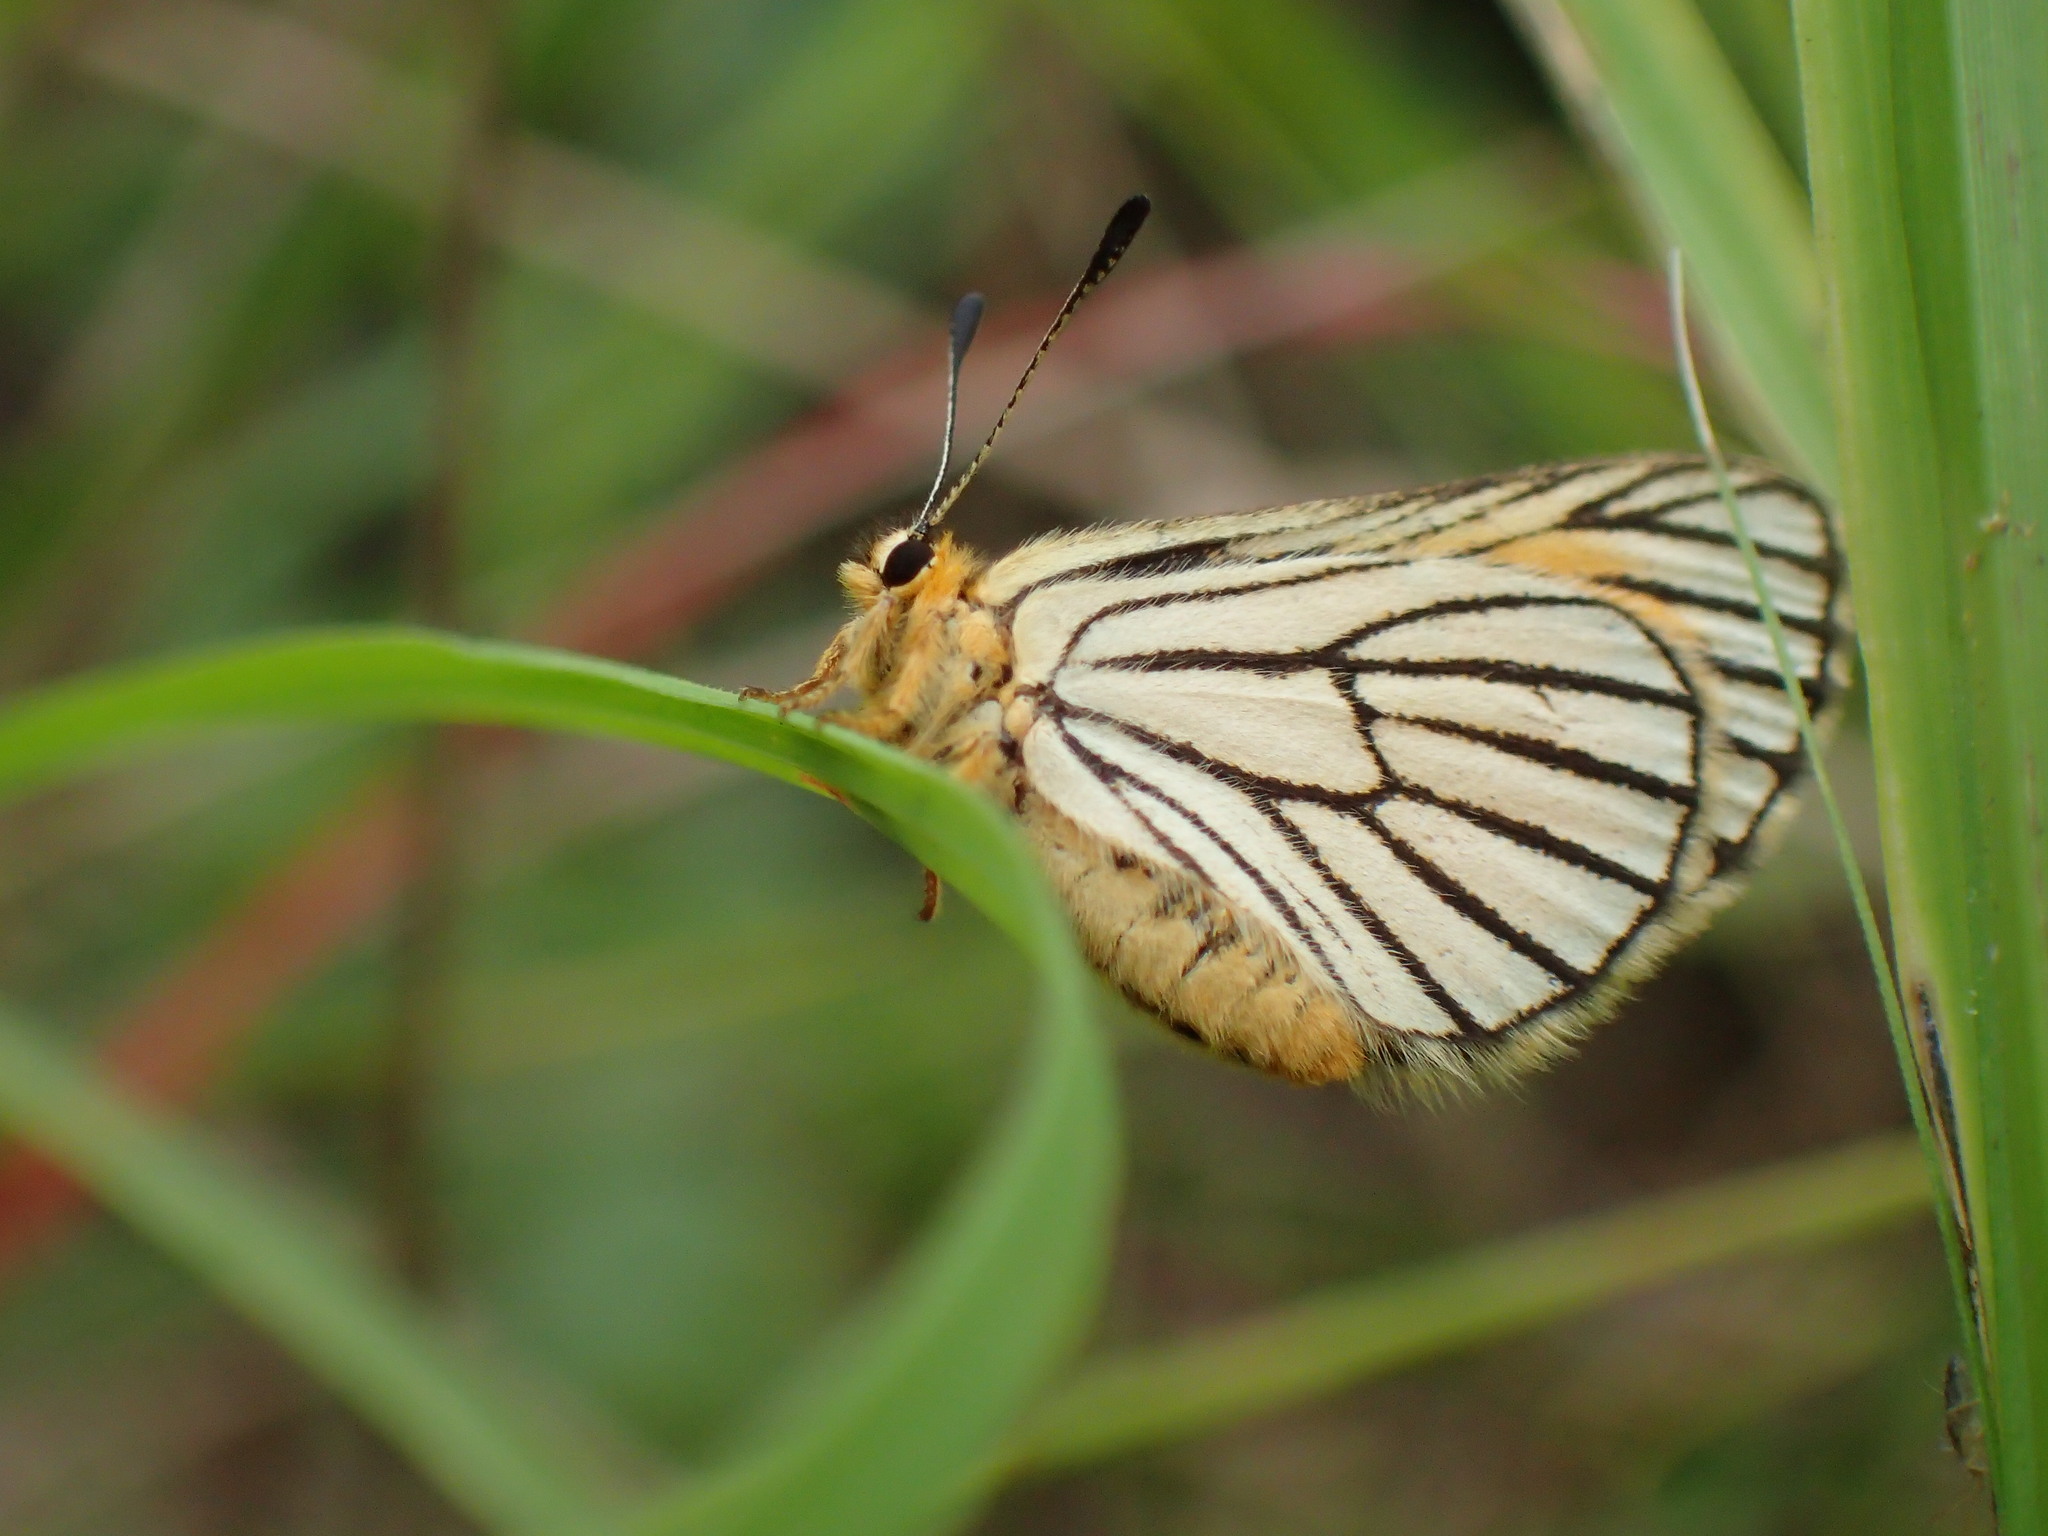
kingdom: Animalia
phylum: Arthropoda
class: Insecta
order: Lepidoptera
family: Lycaenidae
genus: Alaena
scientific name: Alaena amazoula
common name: Yellow zulu
